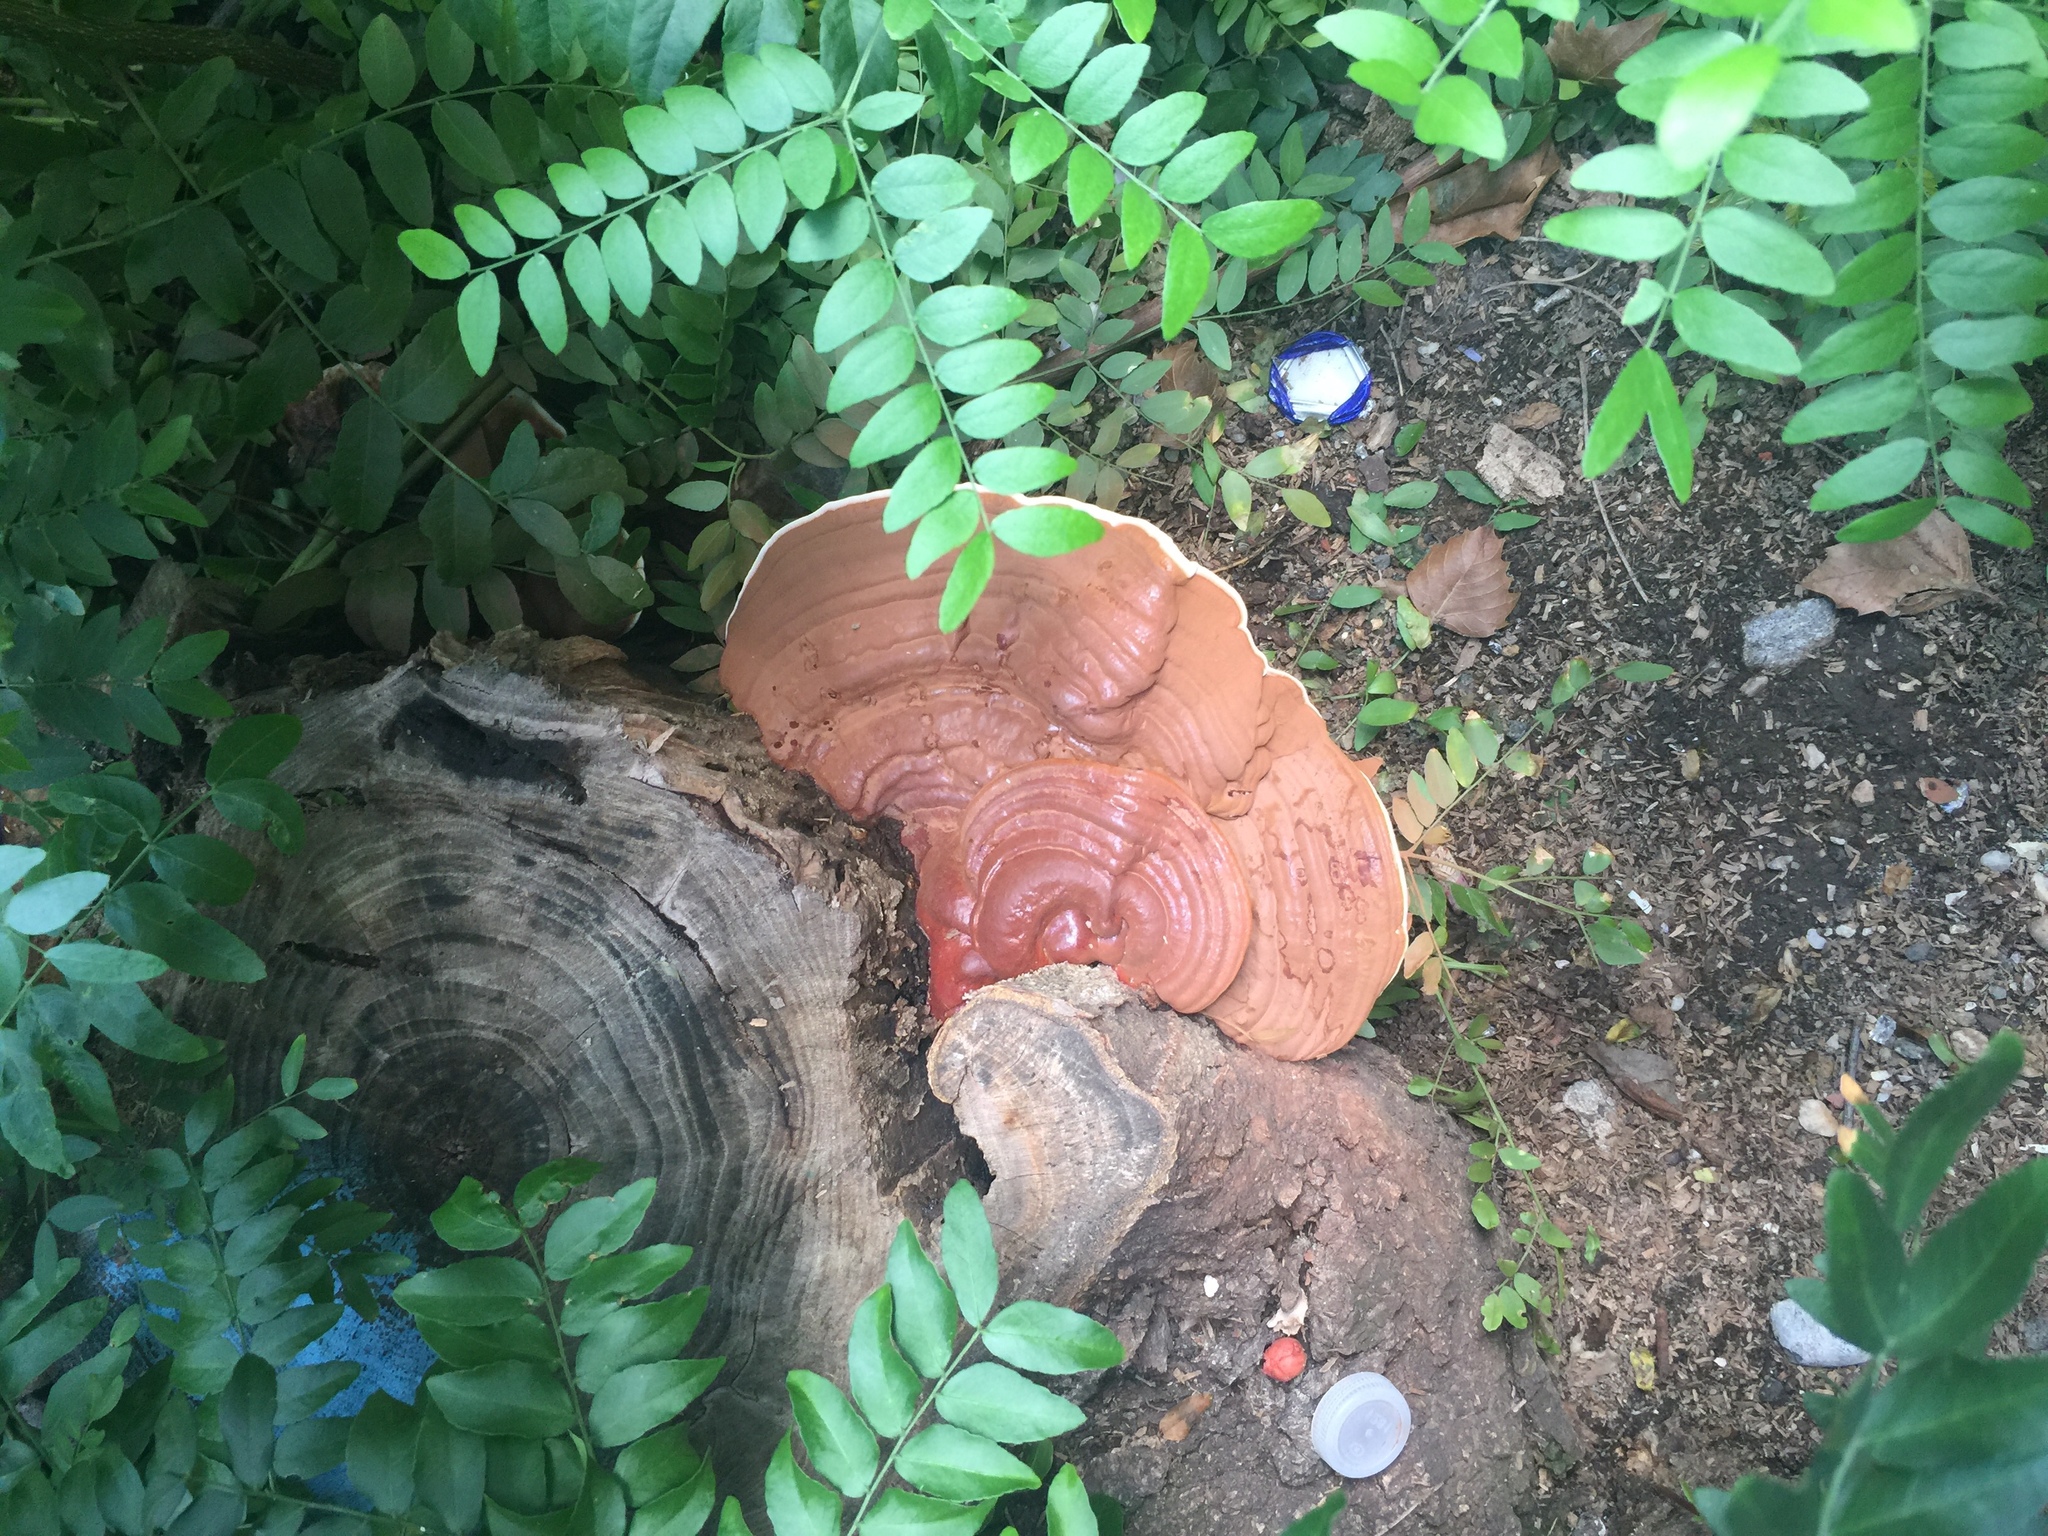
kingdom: Fungi
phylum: Basidiomycota
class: Agaricomycetes
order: Polyporales
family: Polyporaceae
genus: Ganoderma
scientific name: Ganoderma resinaceum
